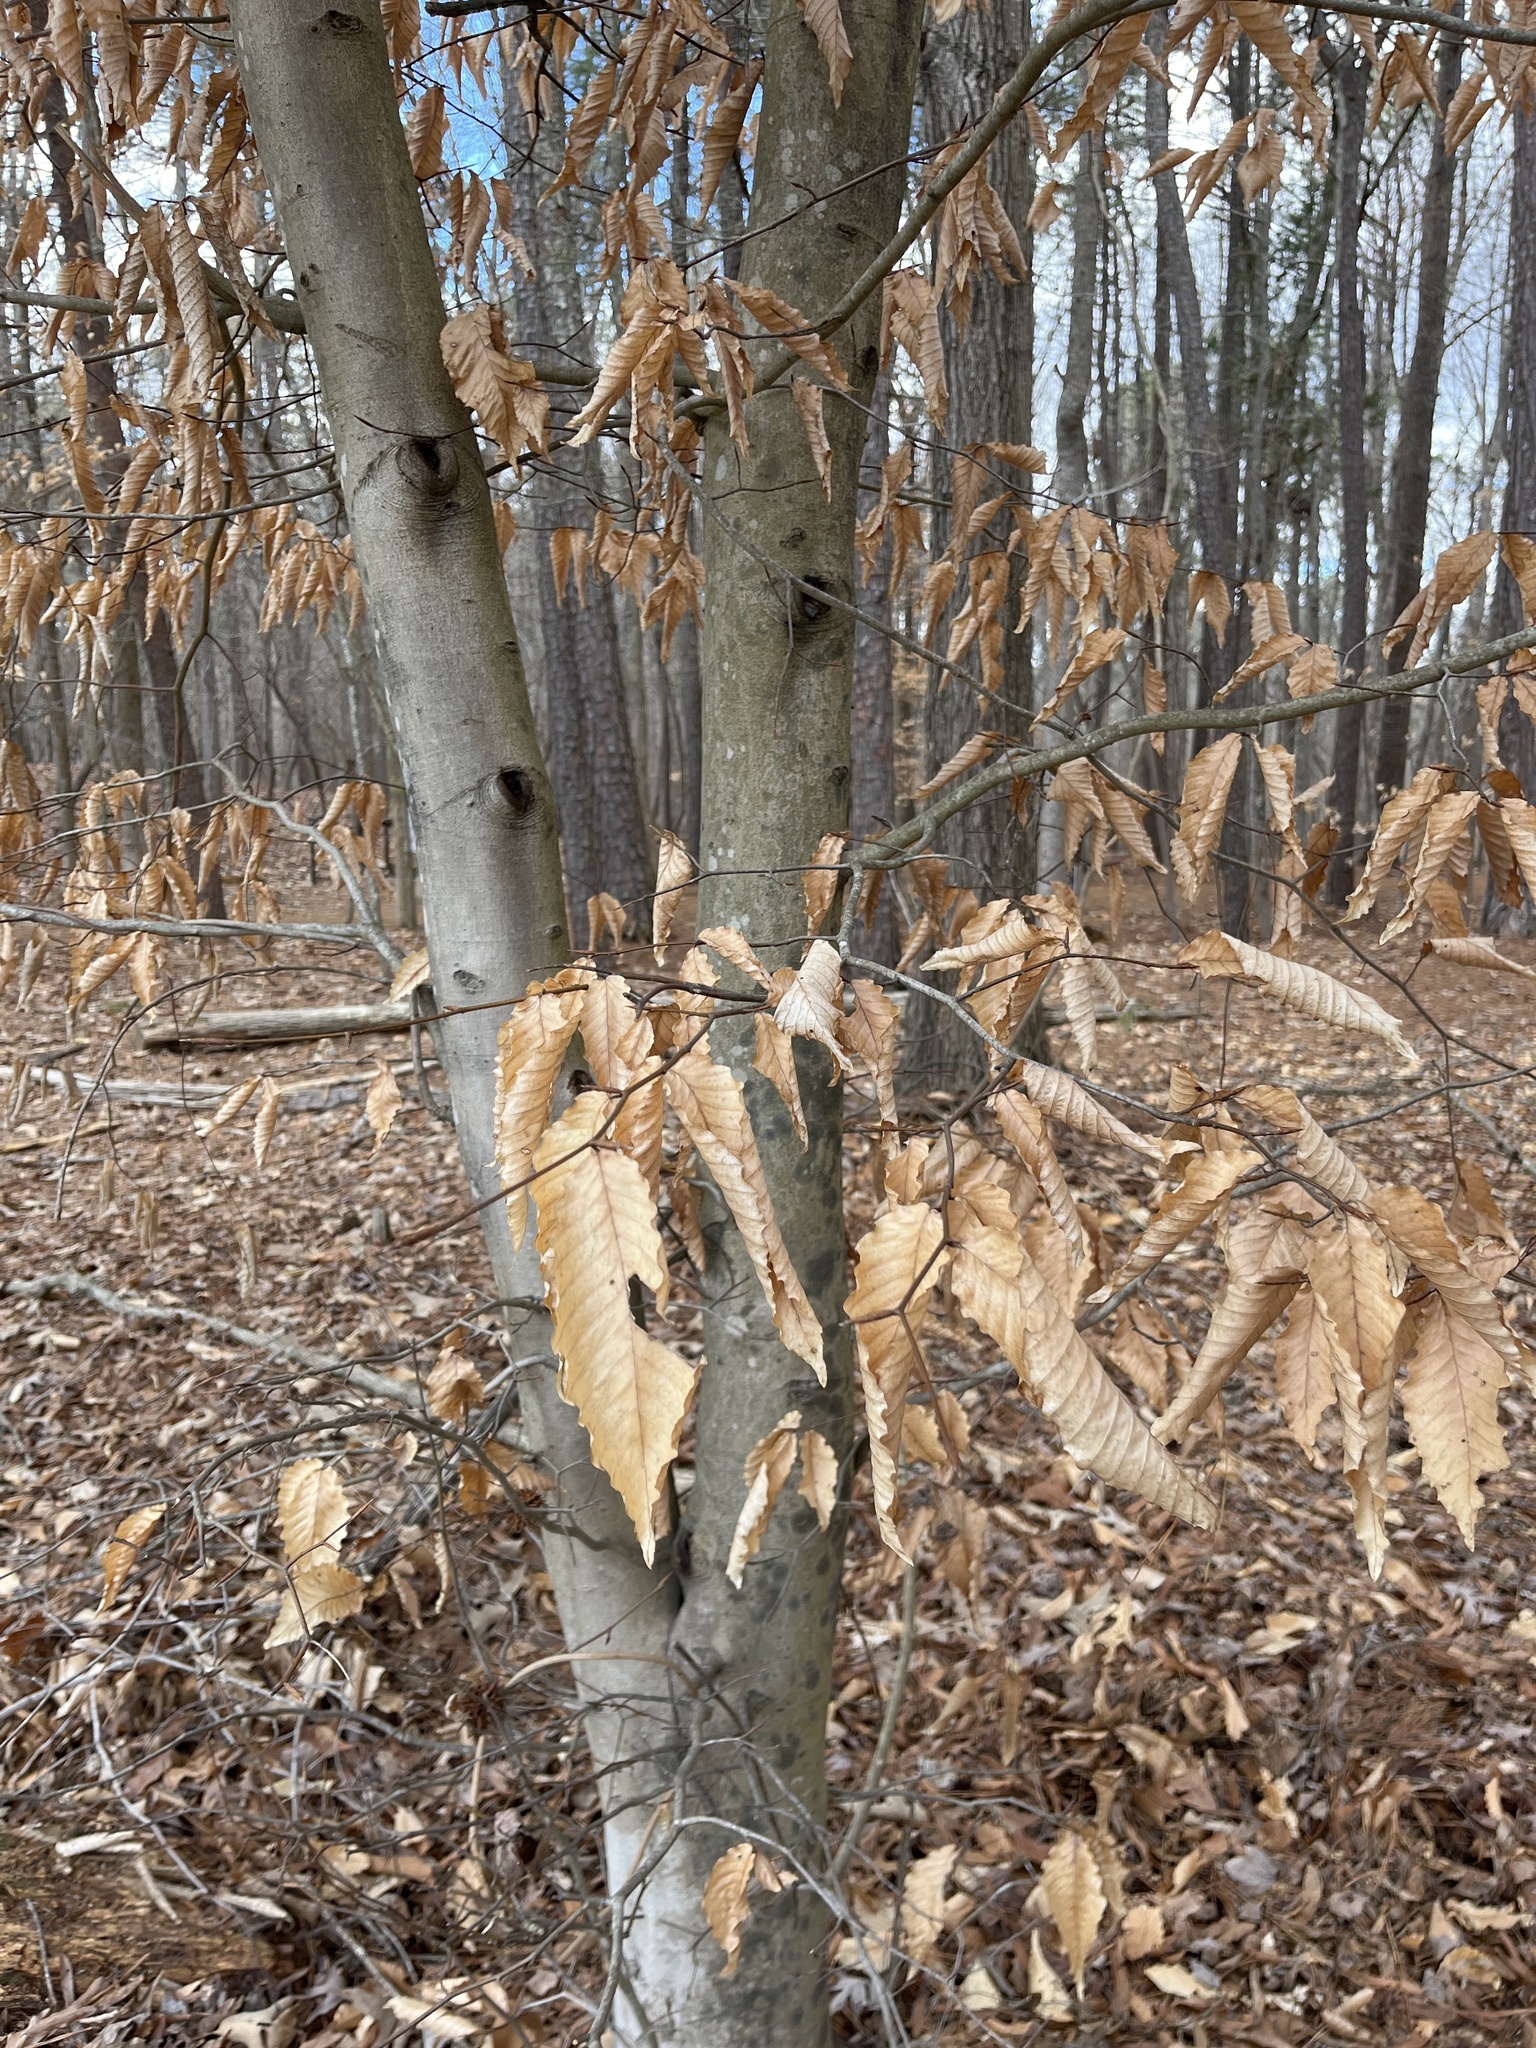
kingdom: Plantae
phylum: Tracheophyta
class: Magnoliopsida
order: Fagales
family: Fagaceae
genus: Fagus
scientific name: Fagus grandifolia
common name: American beech
